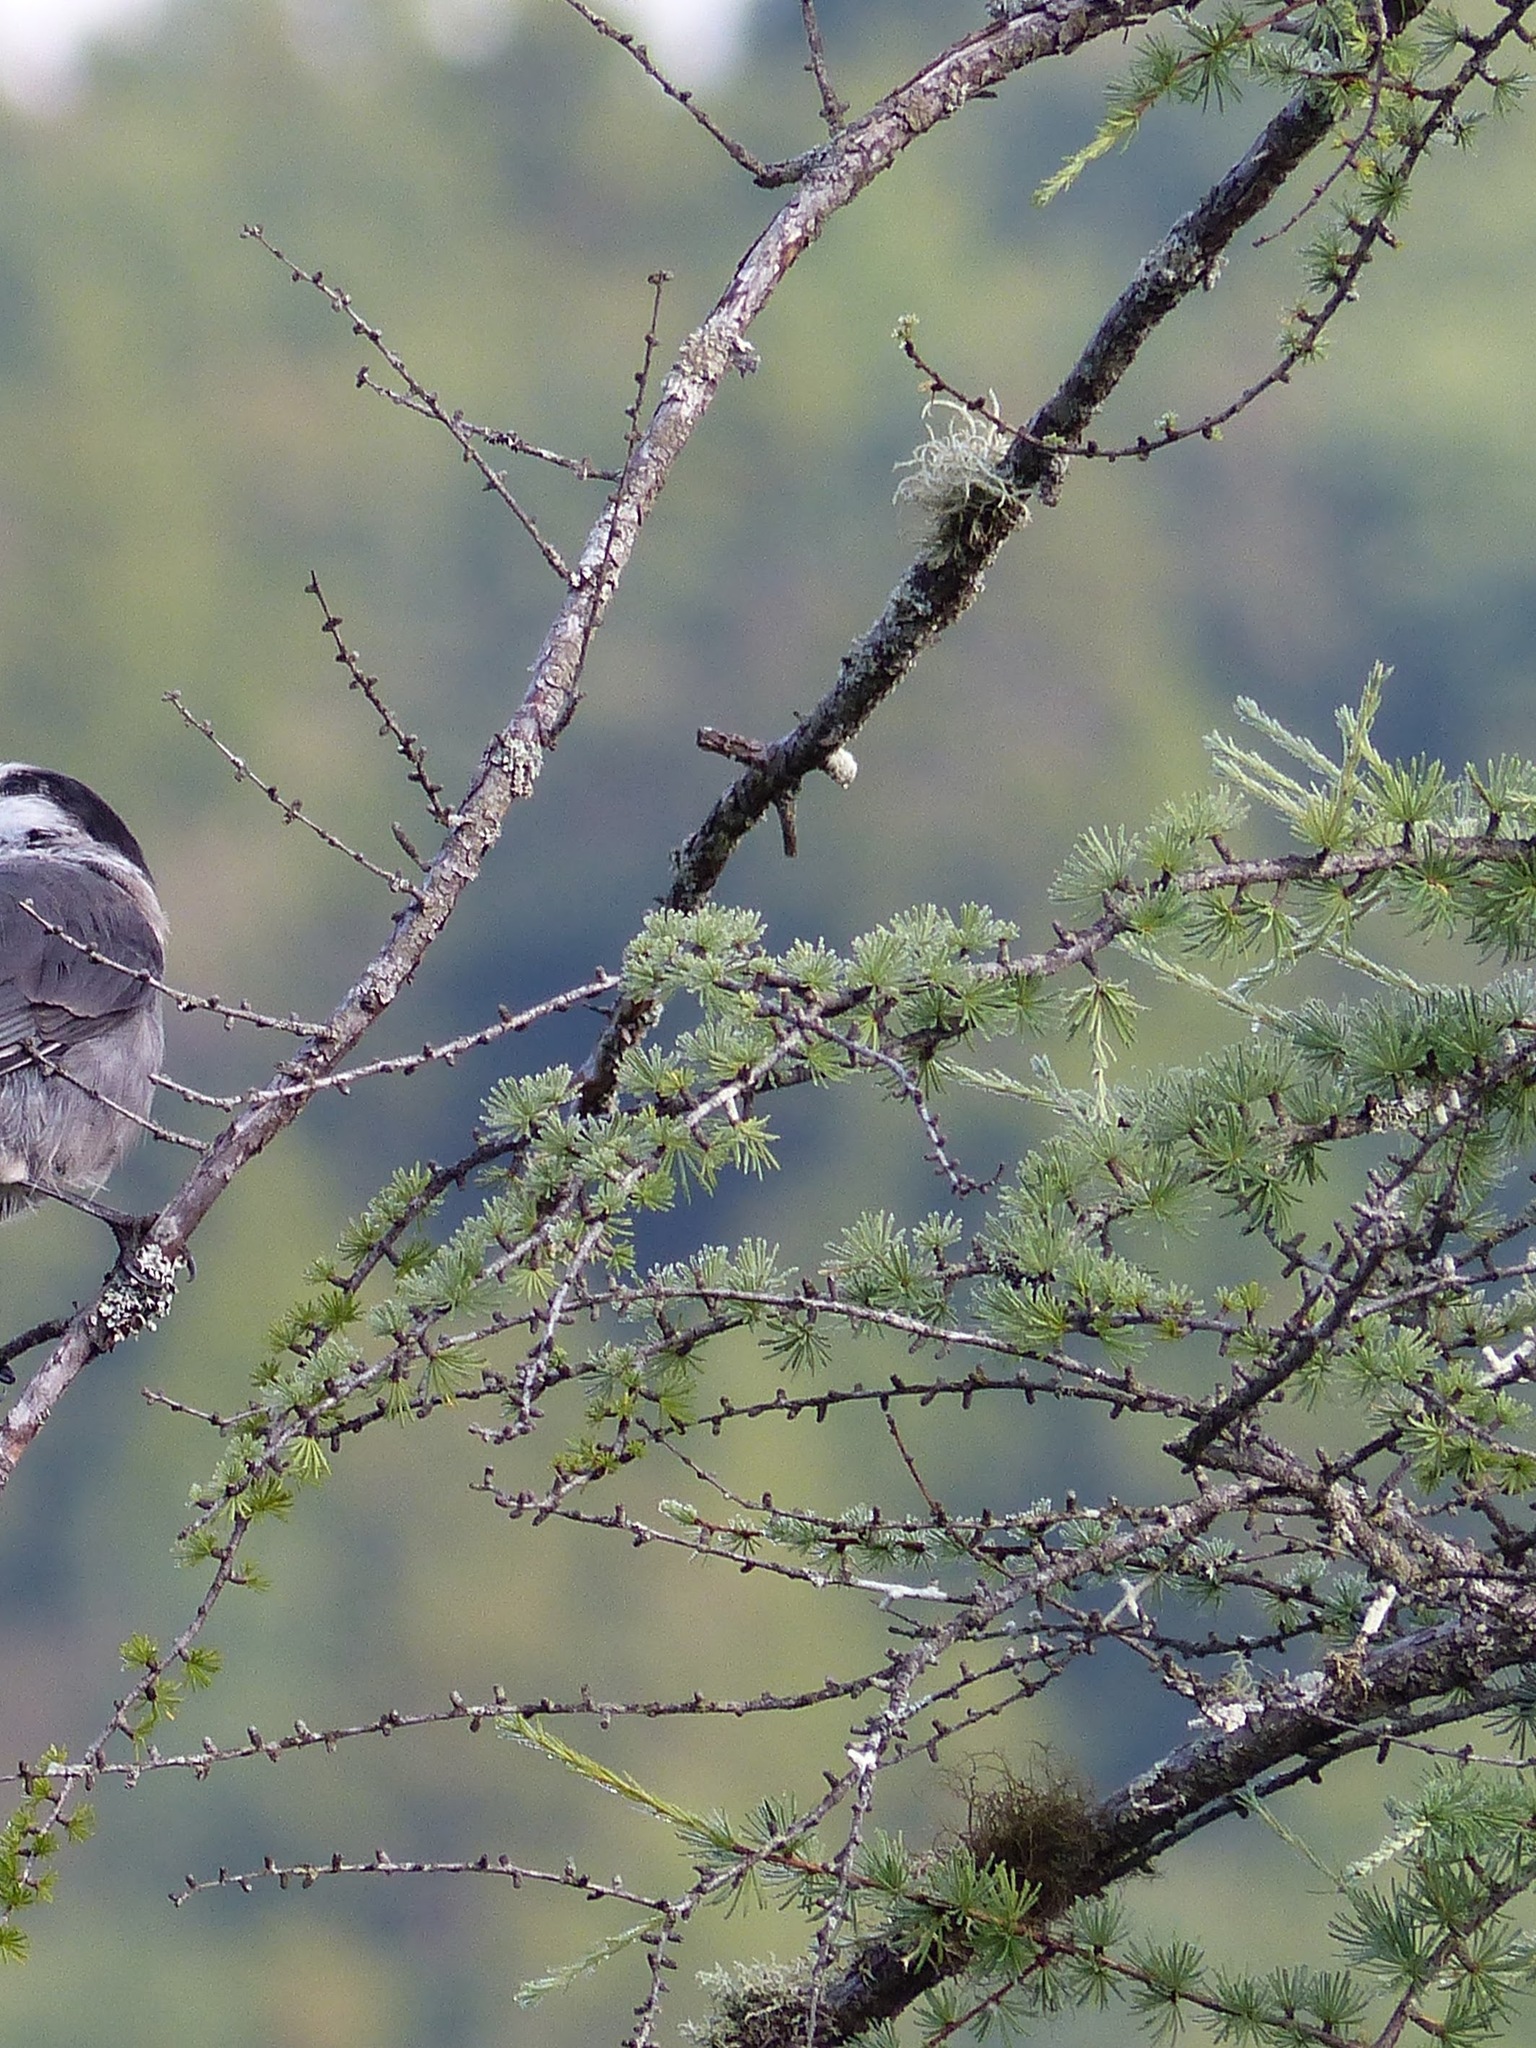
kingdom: Plantae
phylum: Tracheophyta
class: Pinopsida
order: Pinales
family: Pinaceae
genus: Larix
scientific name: Larix laricina
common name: American larch
